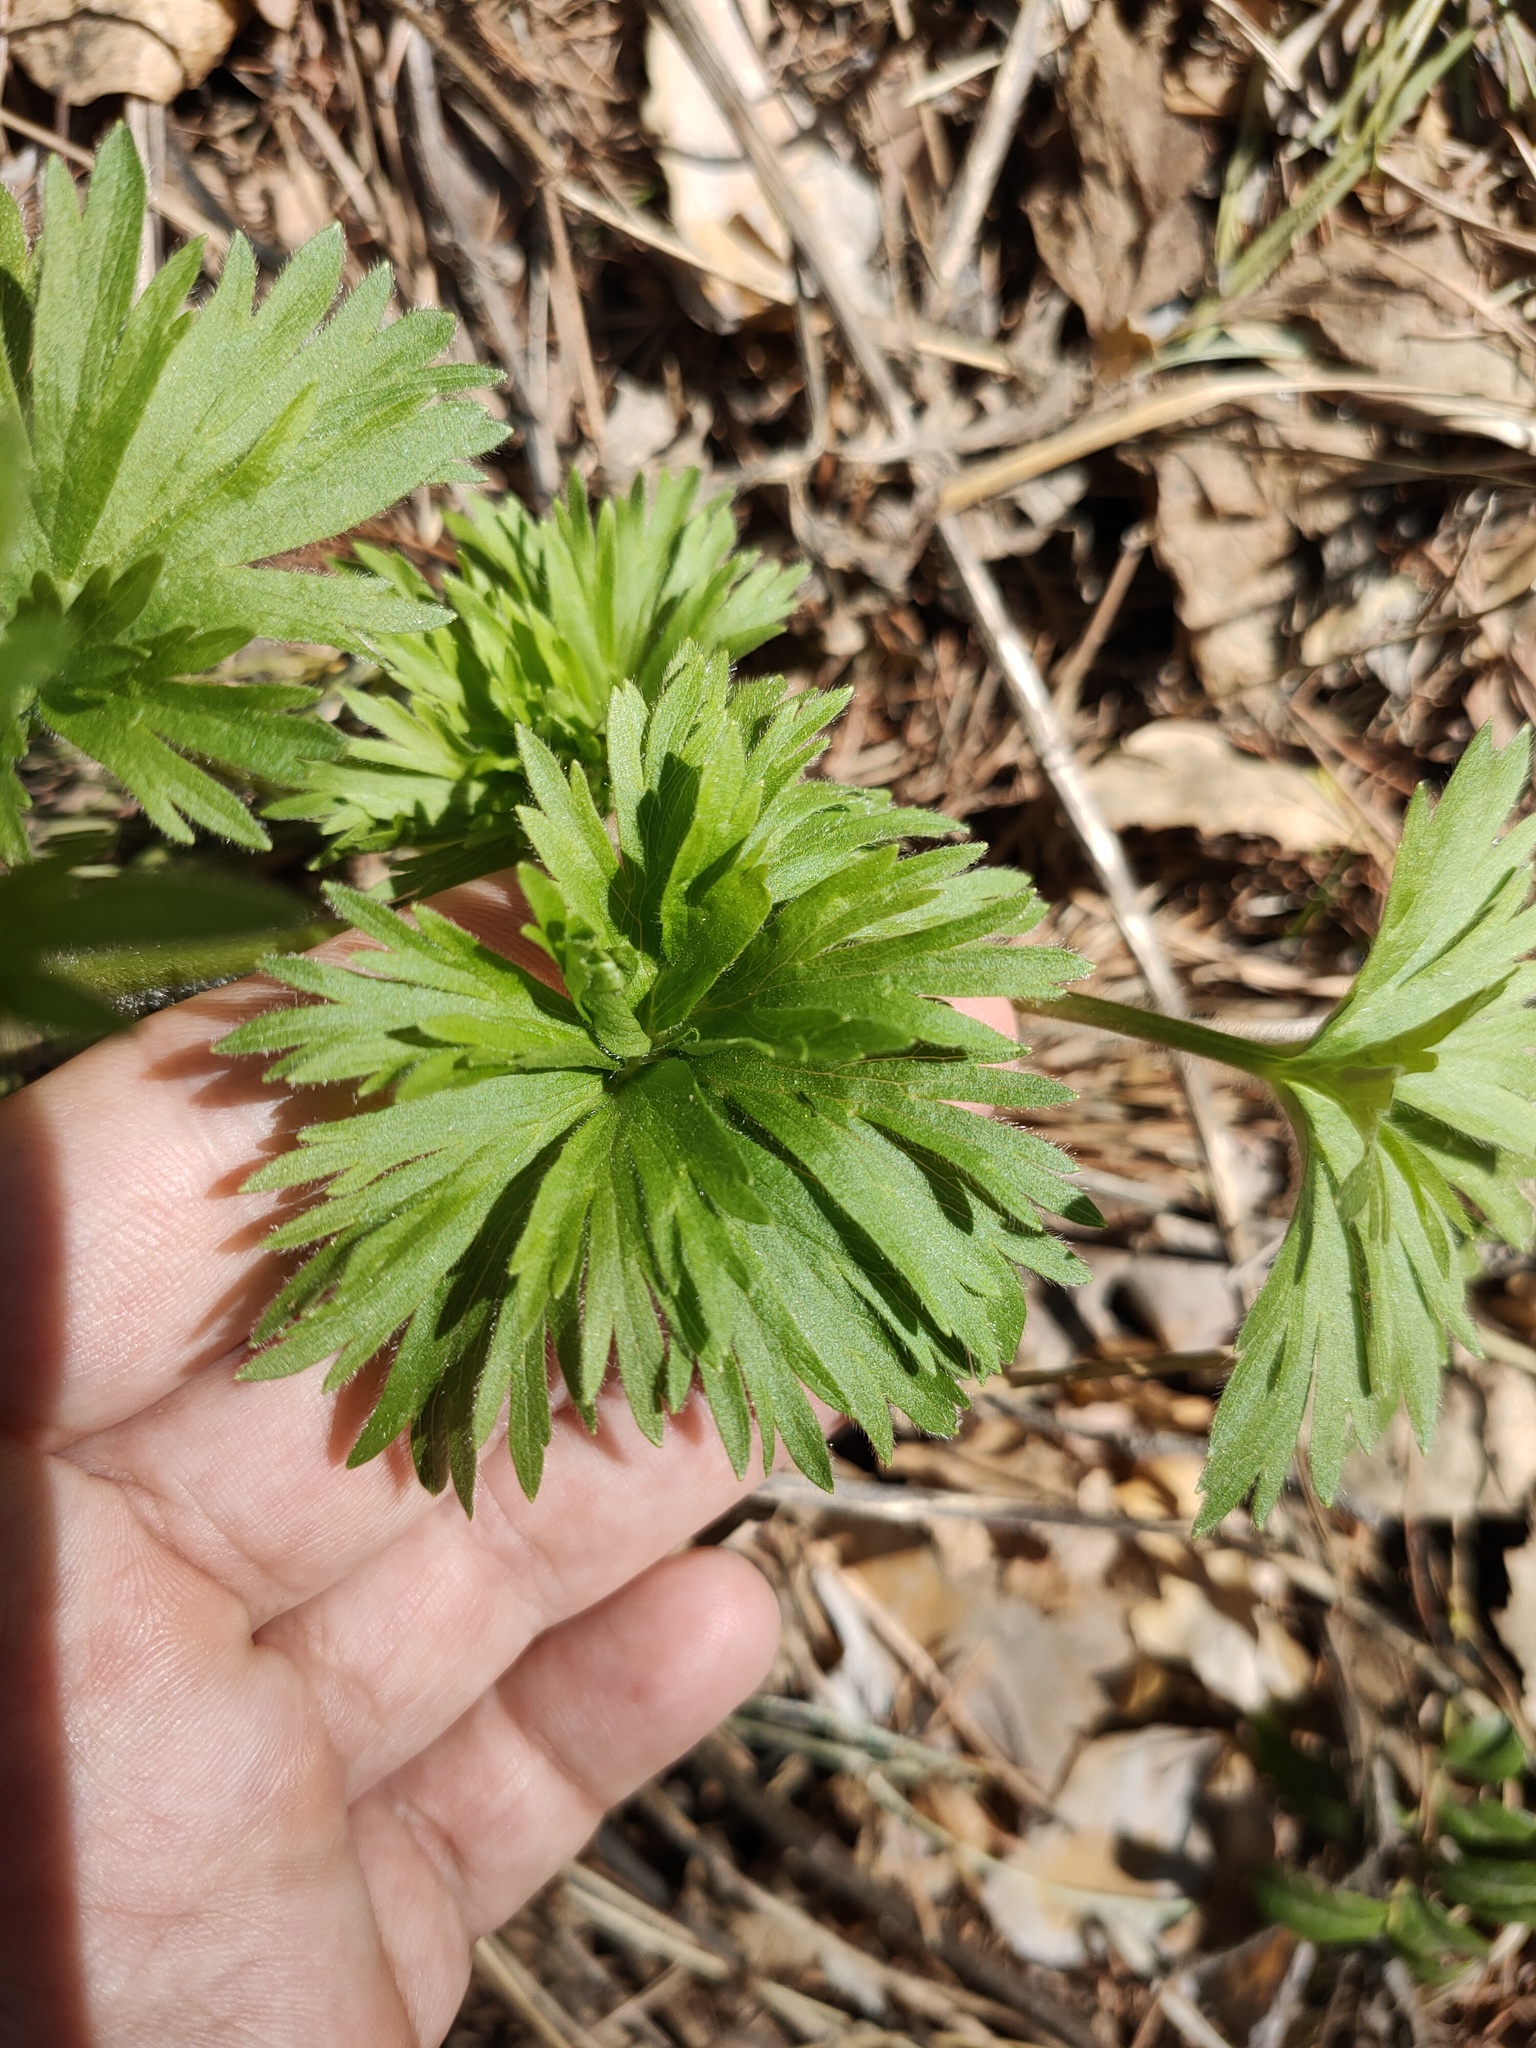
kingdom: Plantae
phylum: Tracheophyta
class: Magnoliopsida
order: Ranunculales
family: Ranunculaceae
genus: Anemonastrum
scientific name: Anemonastrum biarmiense
